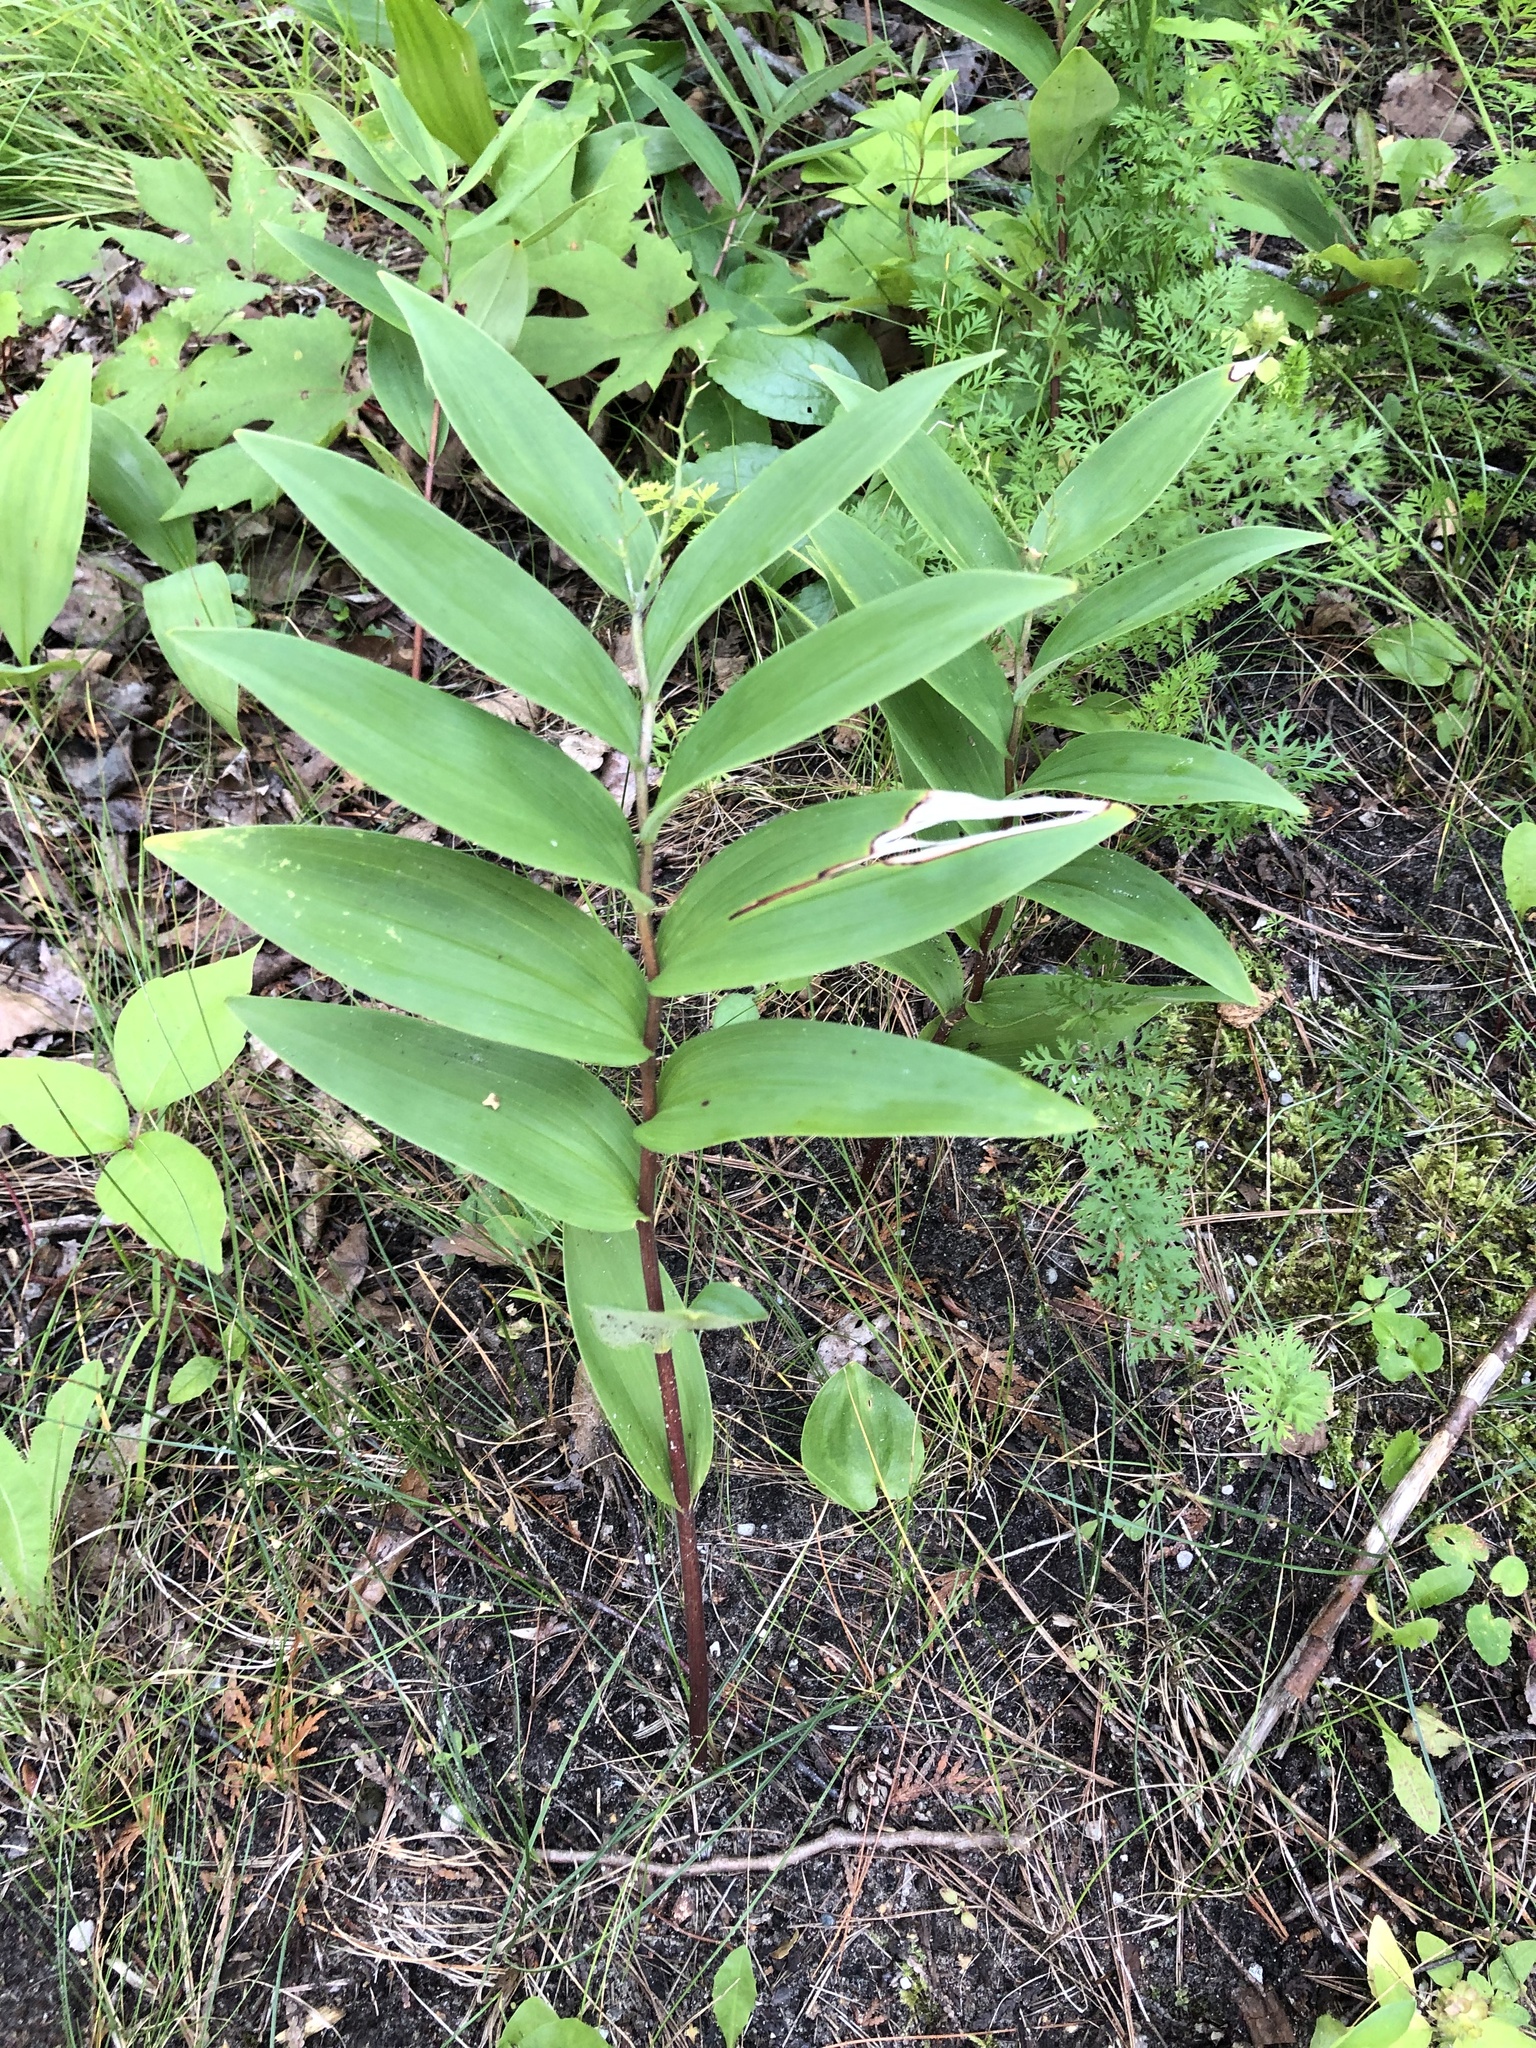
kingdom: Plantae
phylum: Tracheophyta
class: Liliopsida
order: Asparagales
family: Asparagaceae
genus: Maianthemum
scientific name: Maianthemum stellatum
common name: Little false solomon's seal
